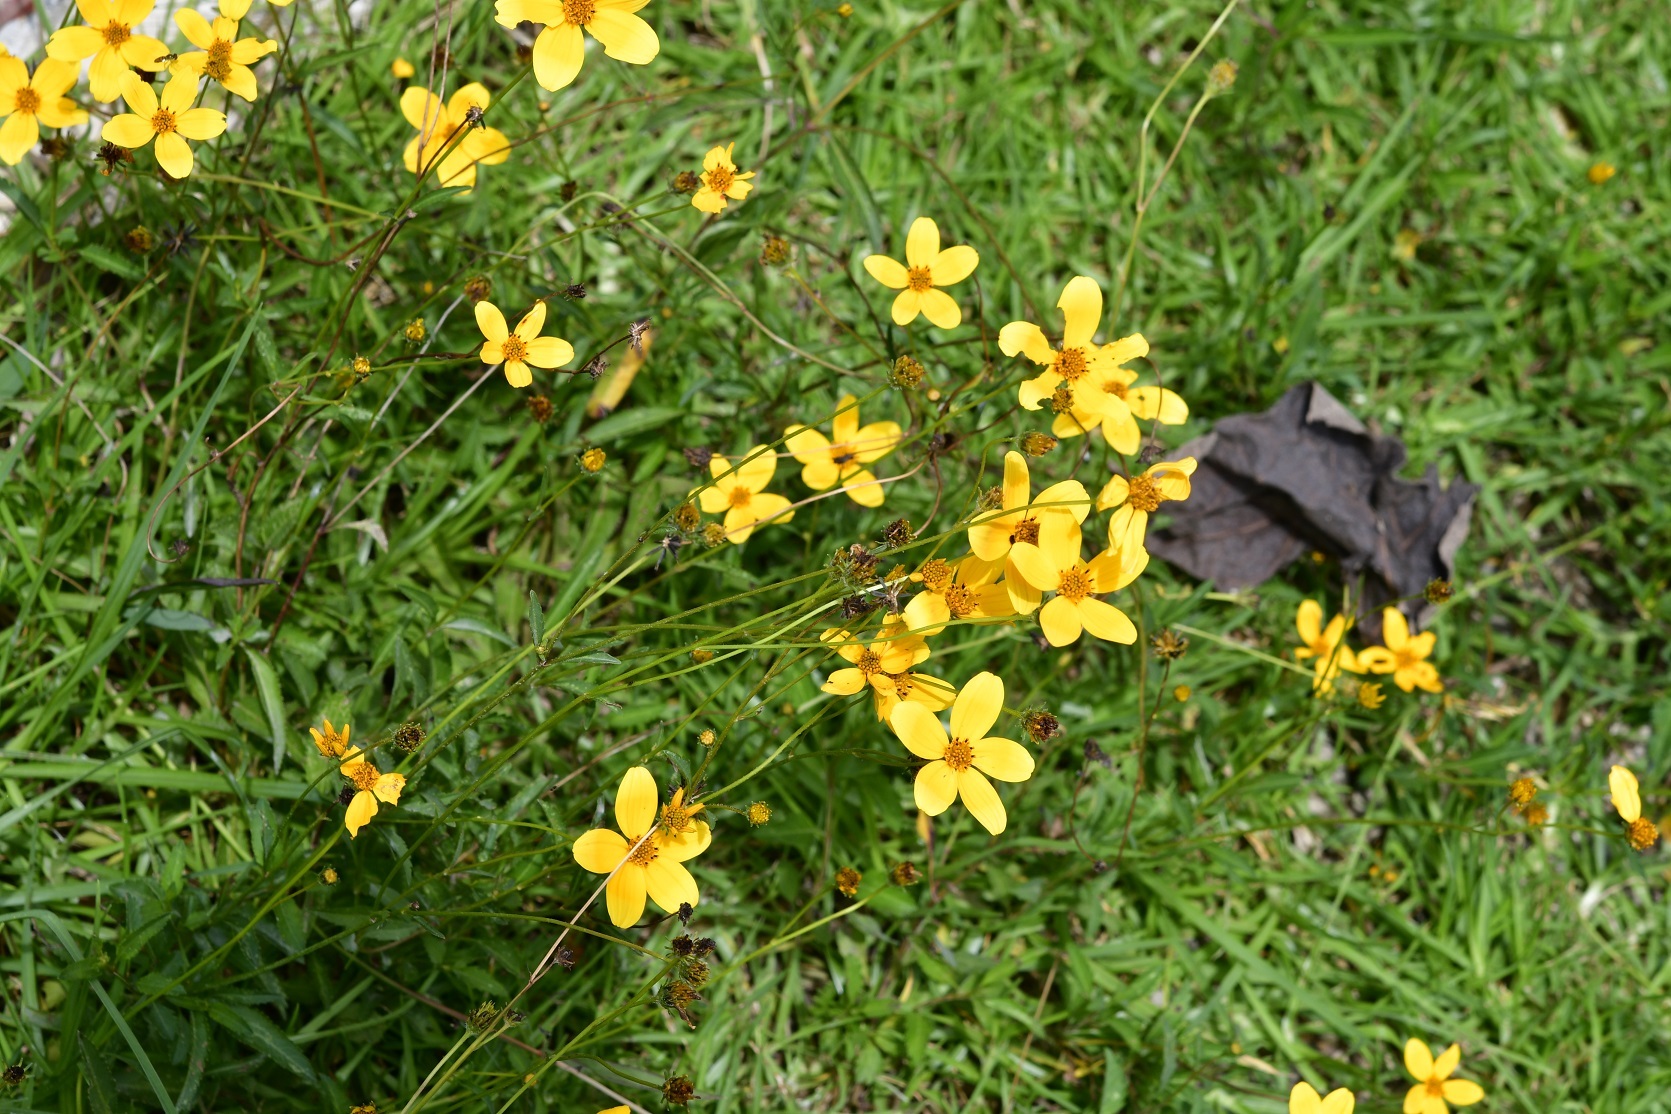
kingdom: Plantae
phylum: Tracheophyta
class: Magnoliopsida
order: Asterales
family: Asteraceae
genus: Bidens
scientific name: Bidens aurea
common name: Arizona beggar-ticks
